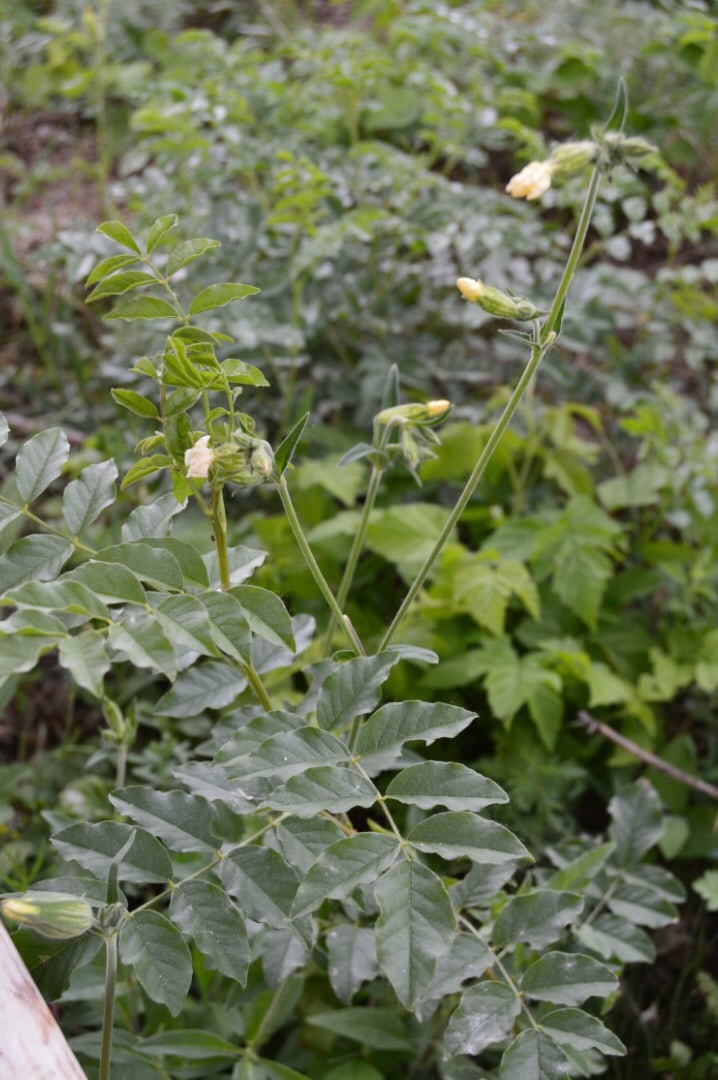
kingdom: Plantae
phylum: Tracheophyta
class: Magnoliopsida
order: Fabales
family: Fabaceae
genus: Glycyrrhiza
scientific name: Glycyrrhiza glabra
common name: Liquorice
